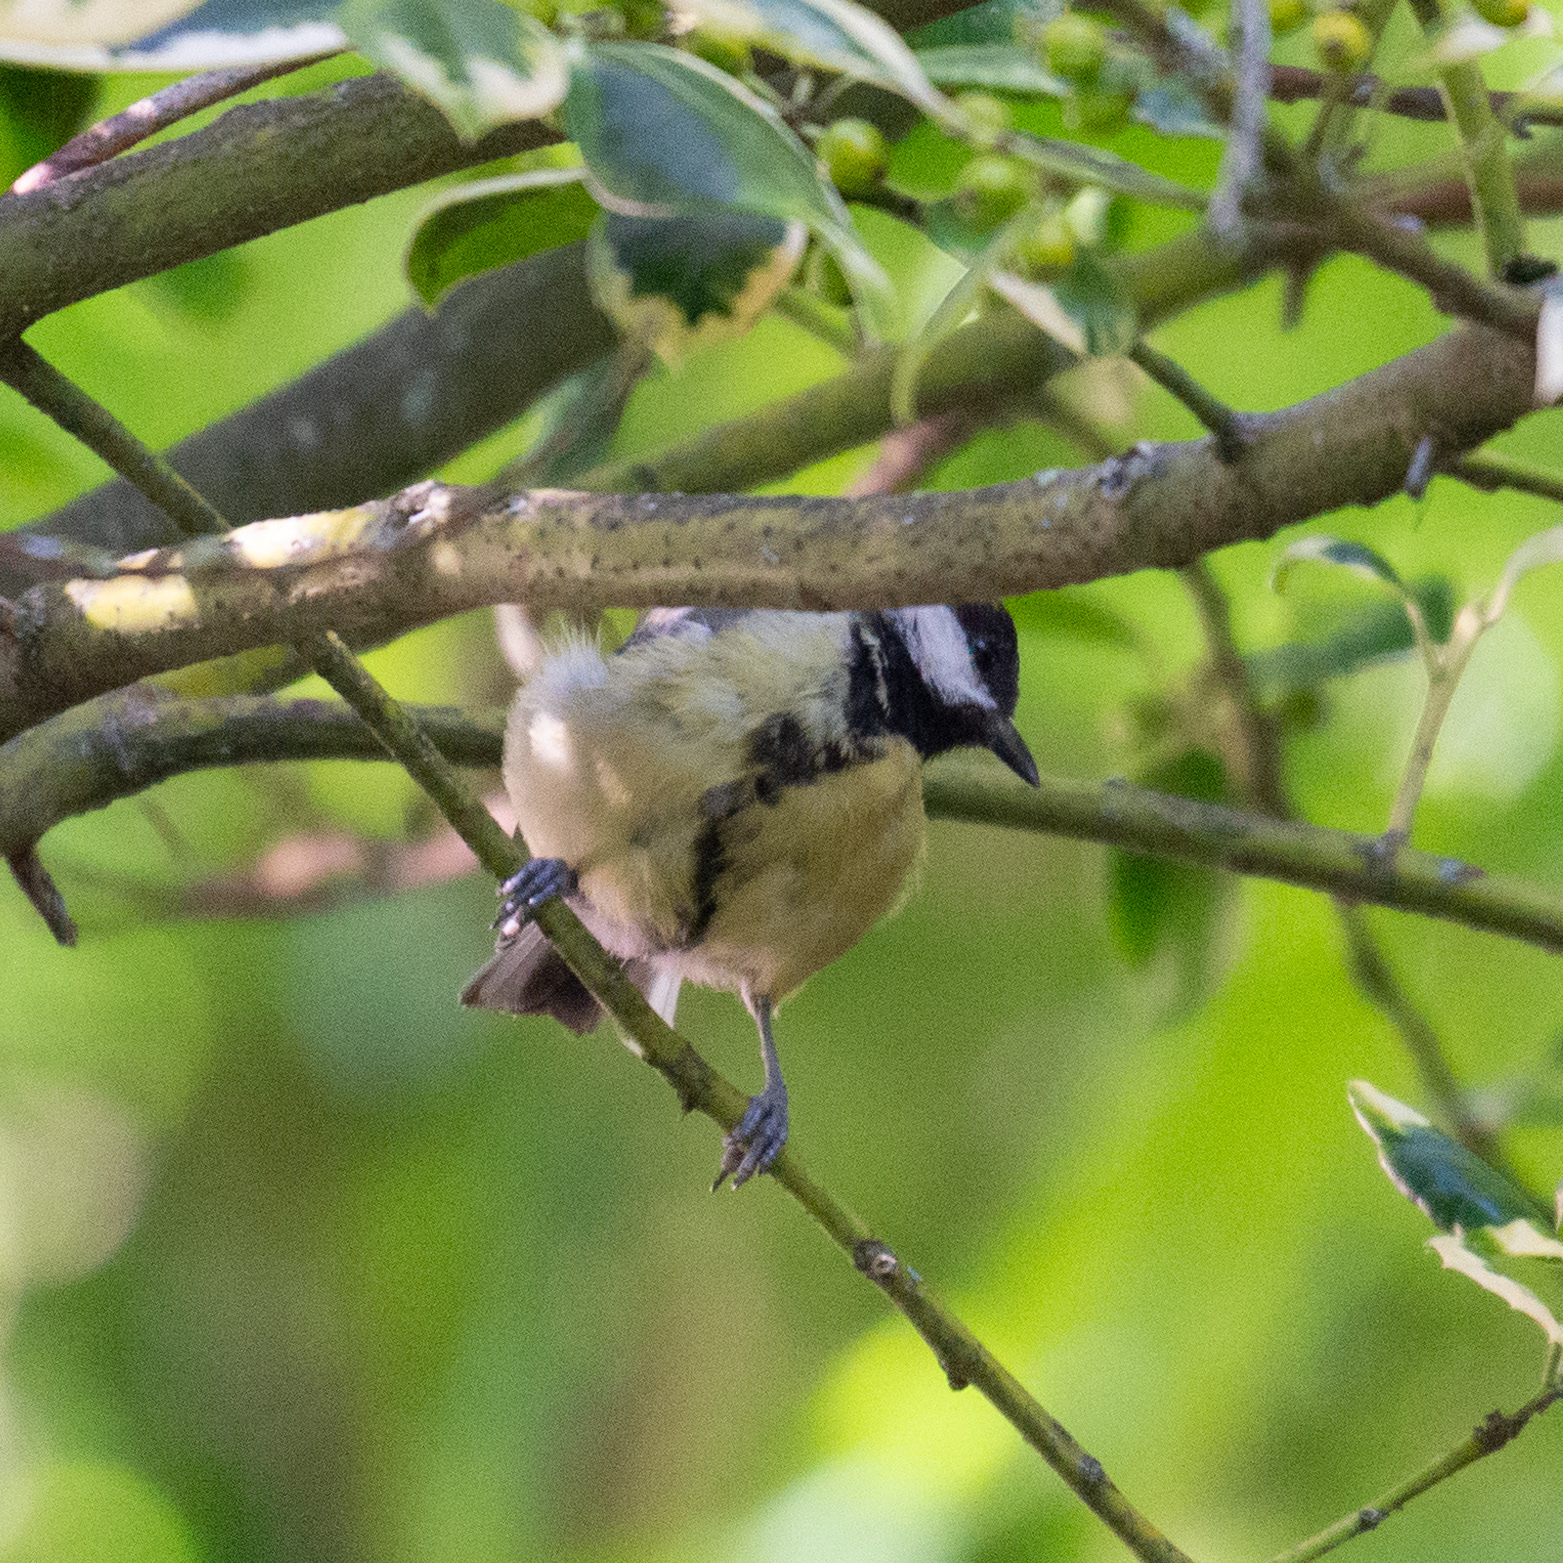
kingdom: Animalia
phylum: Chordata
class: Aves
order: Passeriformes
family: Paridae
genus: Parus
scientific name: Parus major
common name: Great tit
